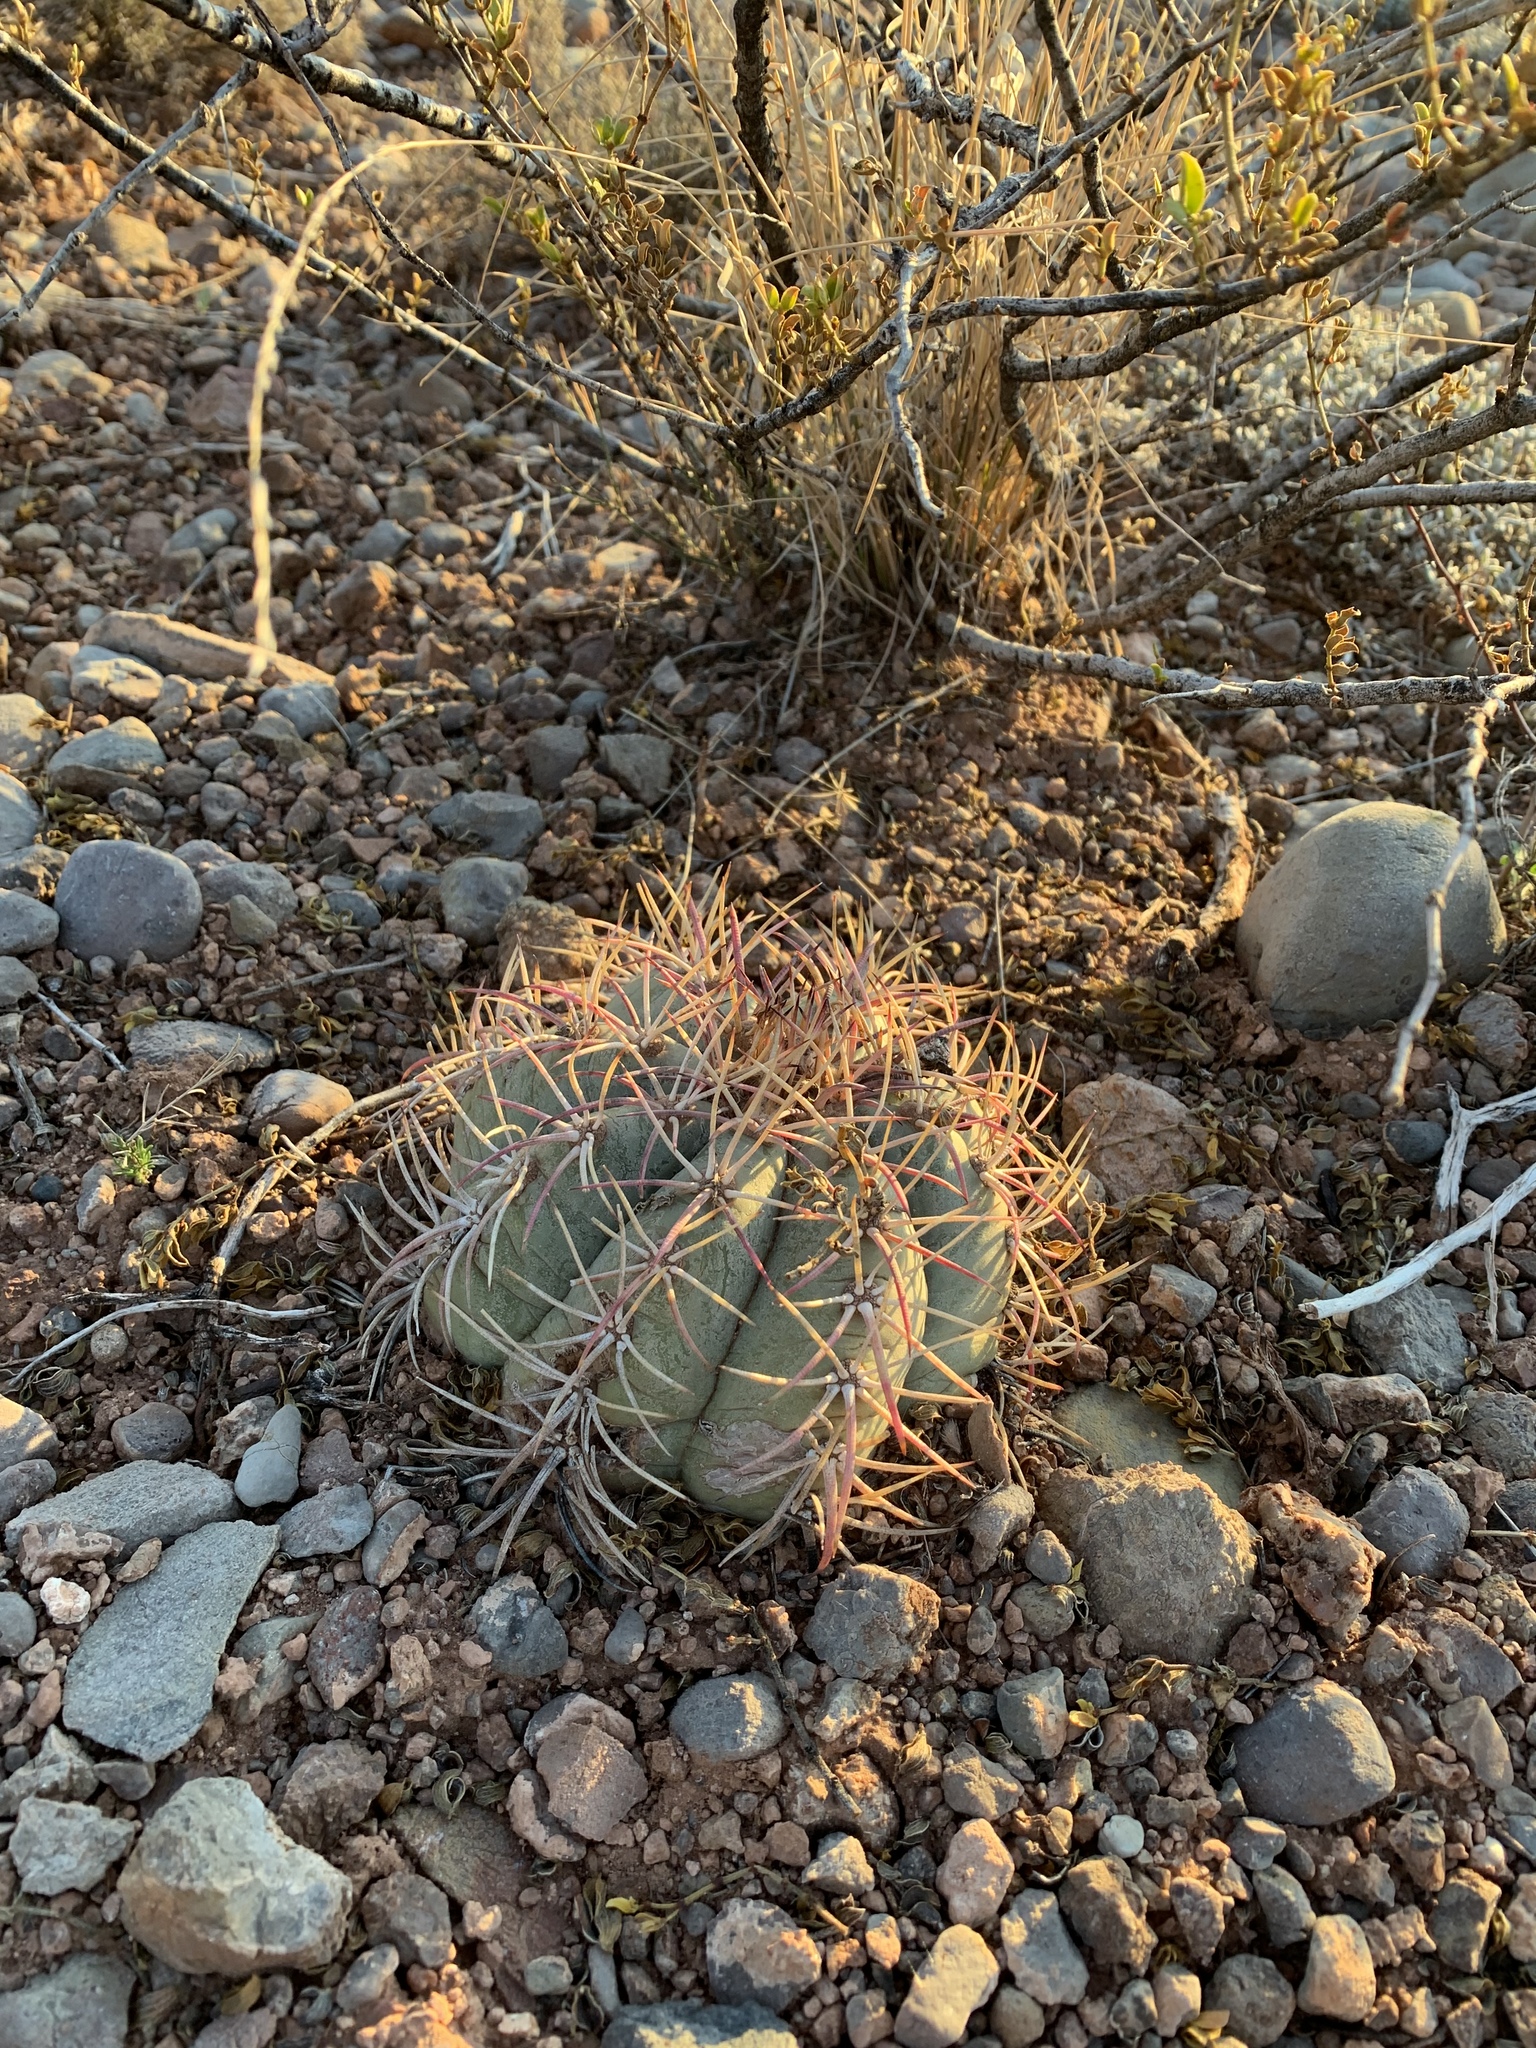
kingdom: Plantae
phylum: Tracheophyta
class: Magnoliopsida
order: Caryophyllales
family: Cactaceae
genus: Echinocactus
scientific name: Echinocactus horizonthalonius
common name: Devilshead
